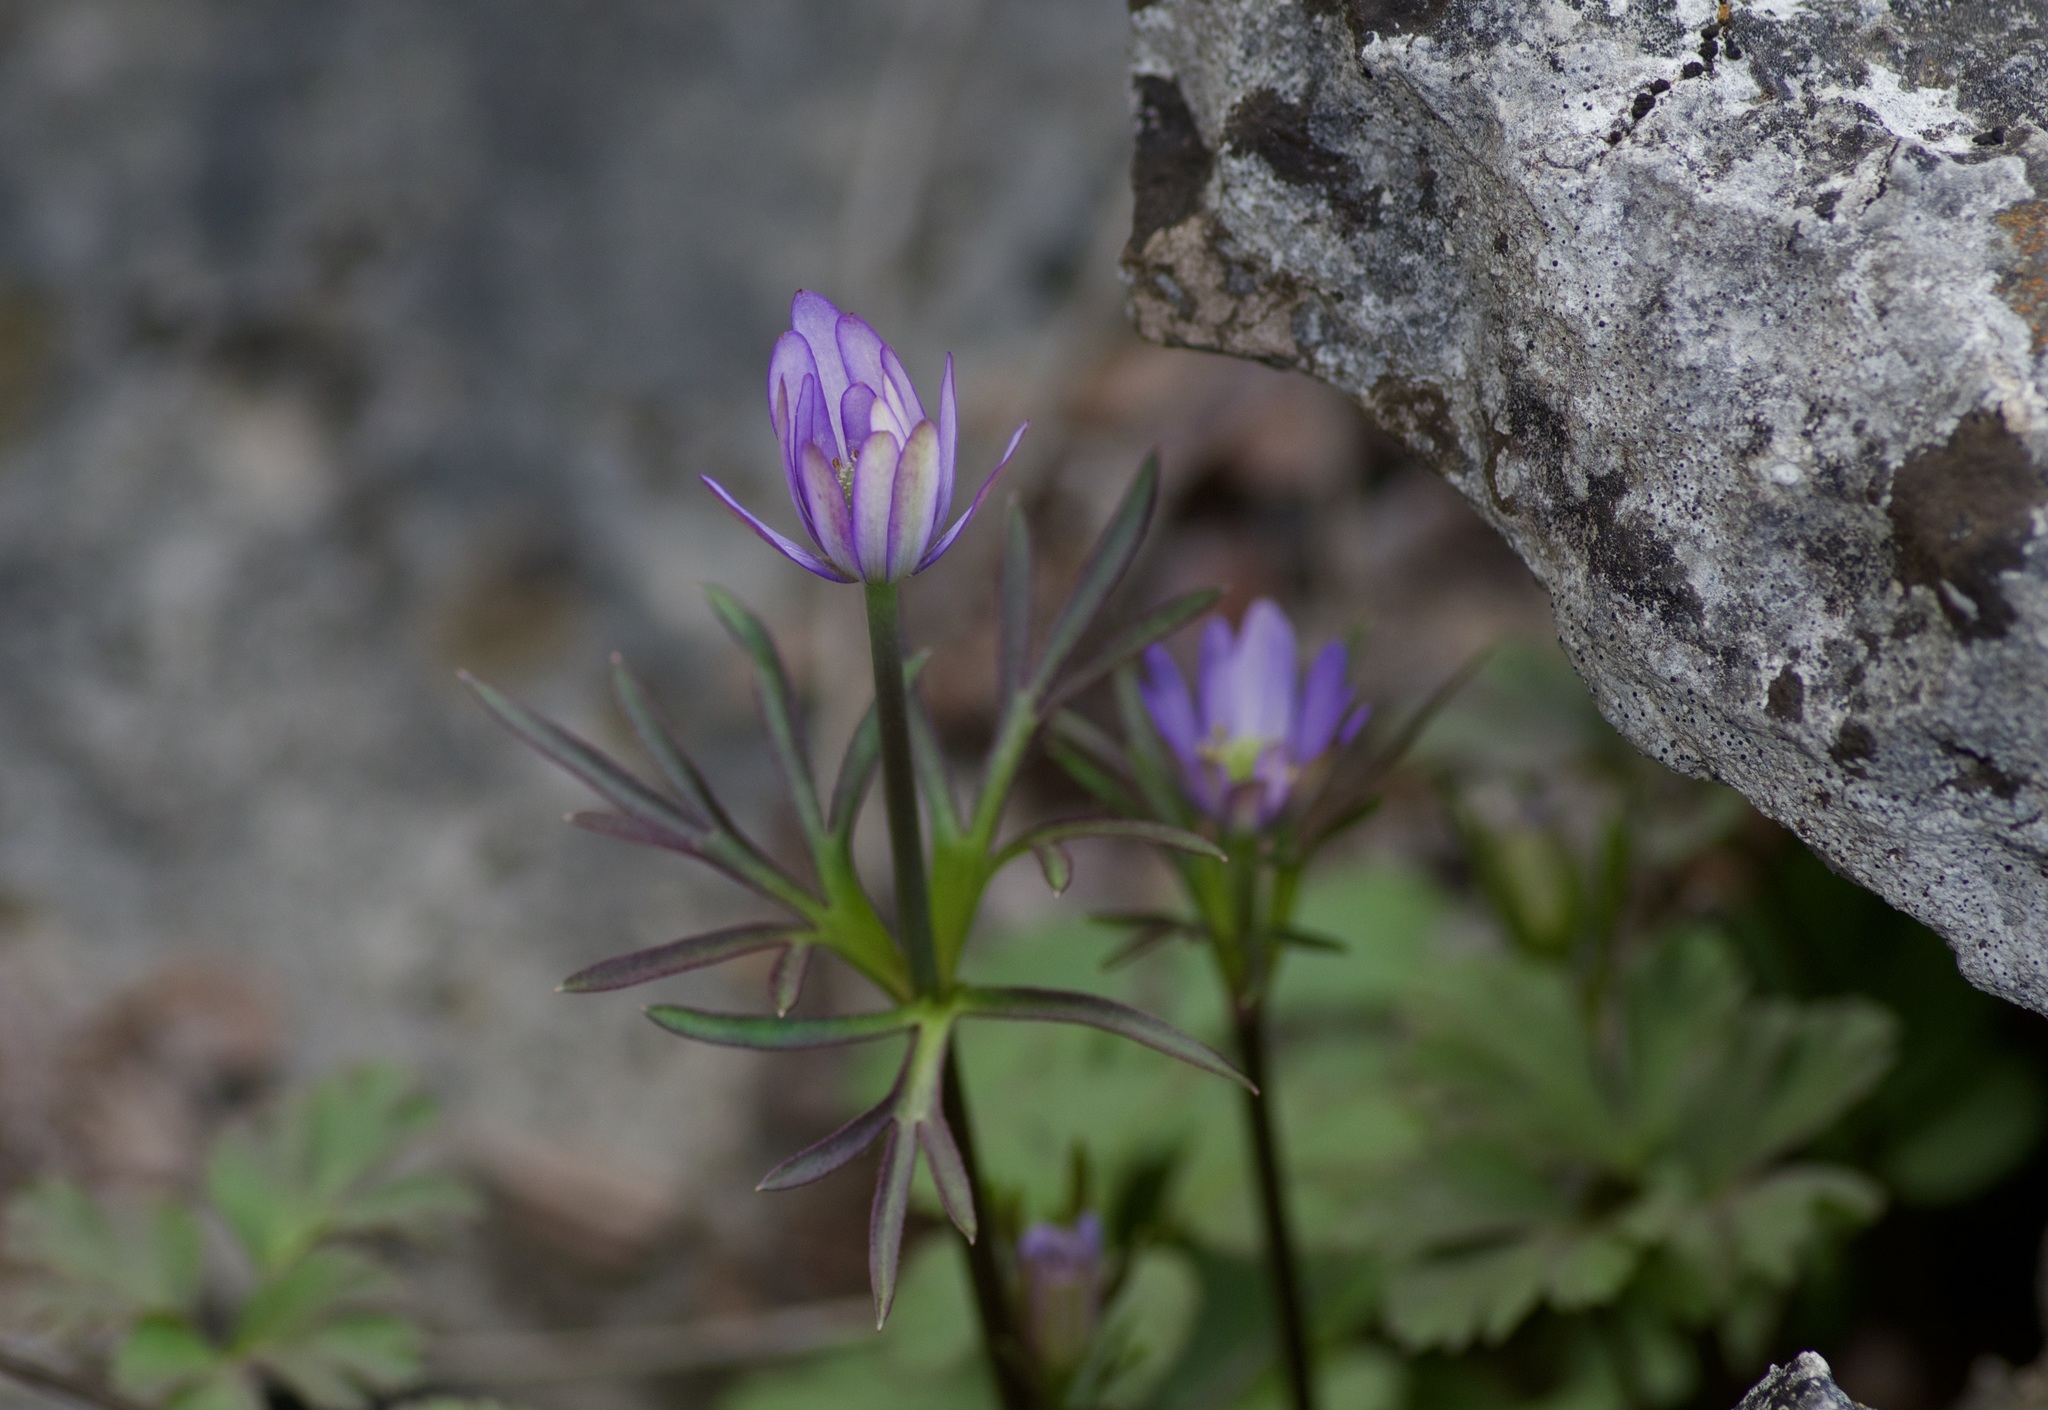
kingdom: Plantae
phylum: Tracheophyta
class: Magnoliopsida
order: Ranunculales
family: Ranunculaceae
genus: Anemone
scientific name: Anemone berlandieri
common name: Ten-petal anemone
